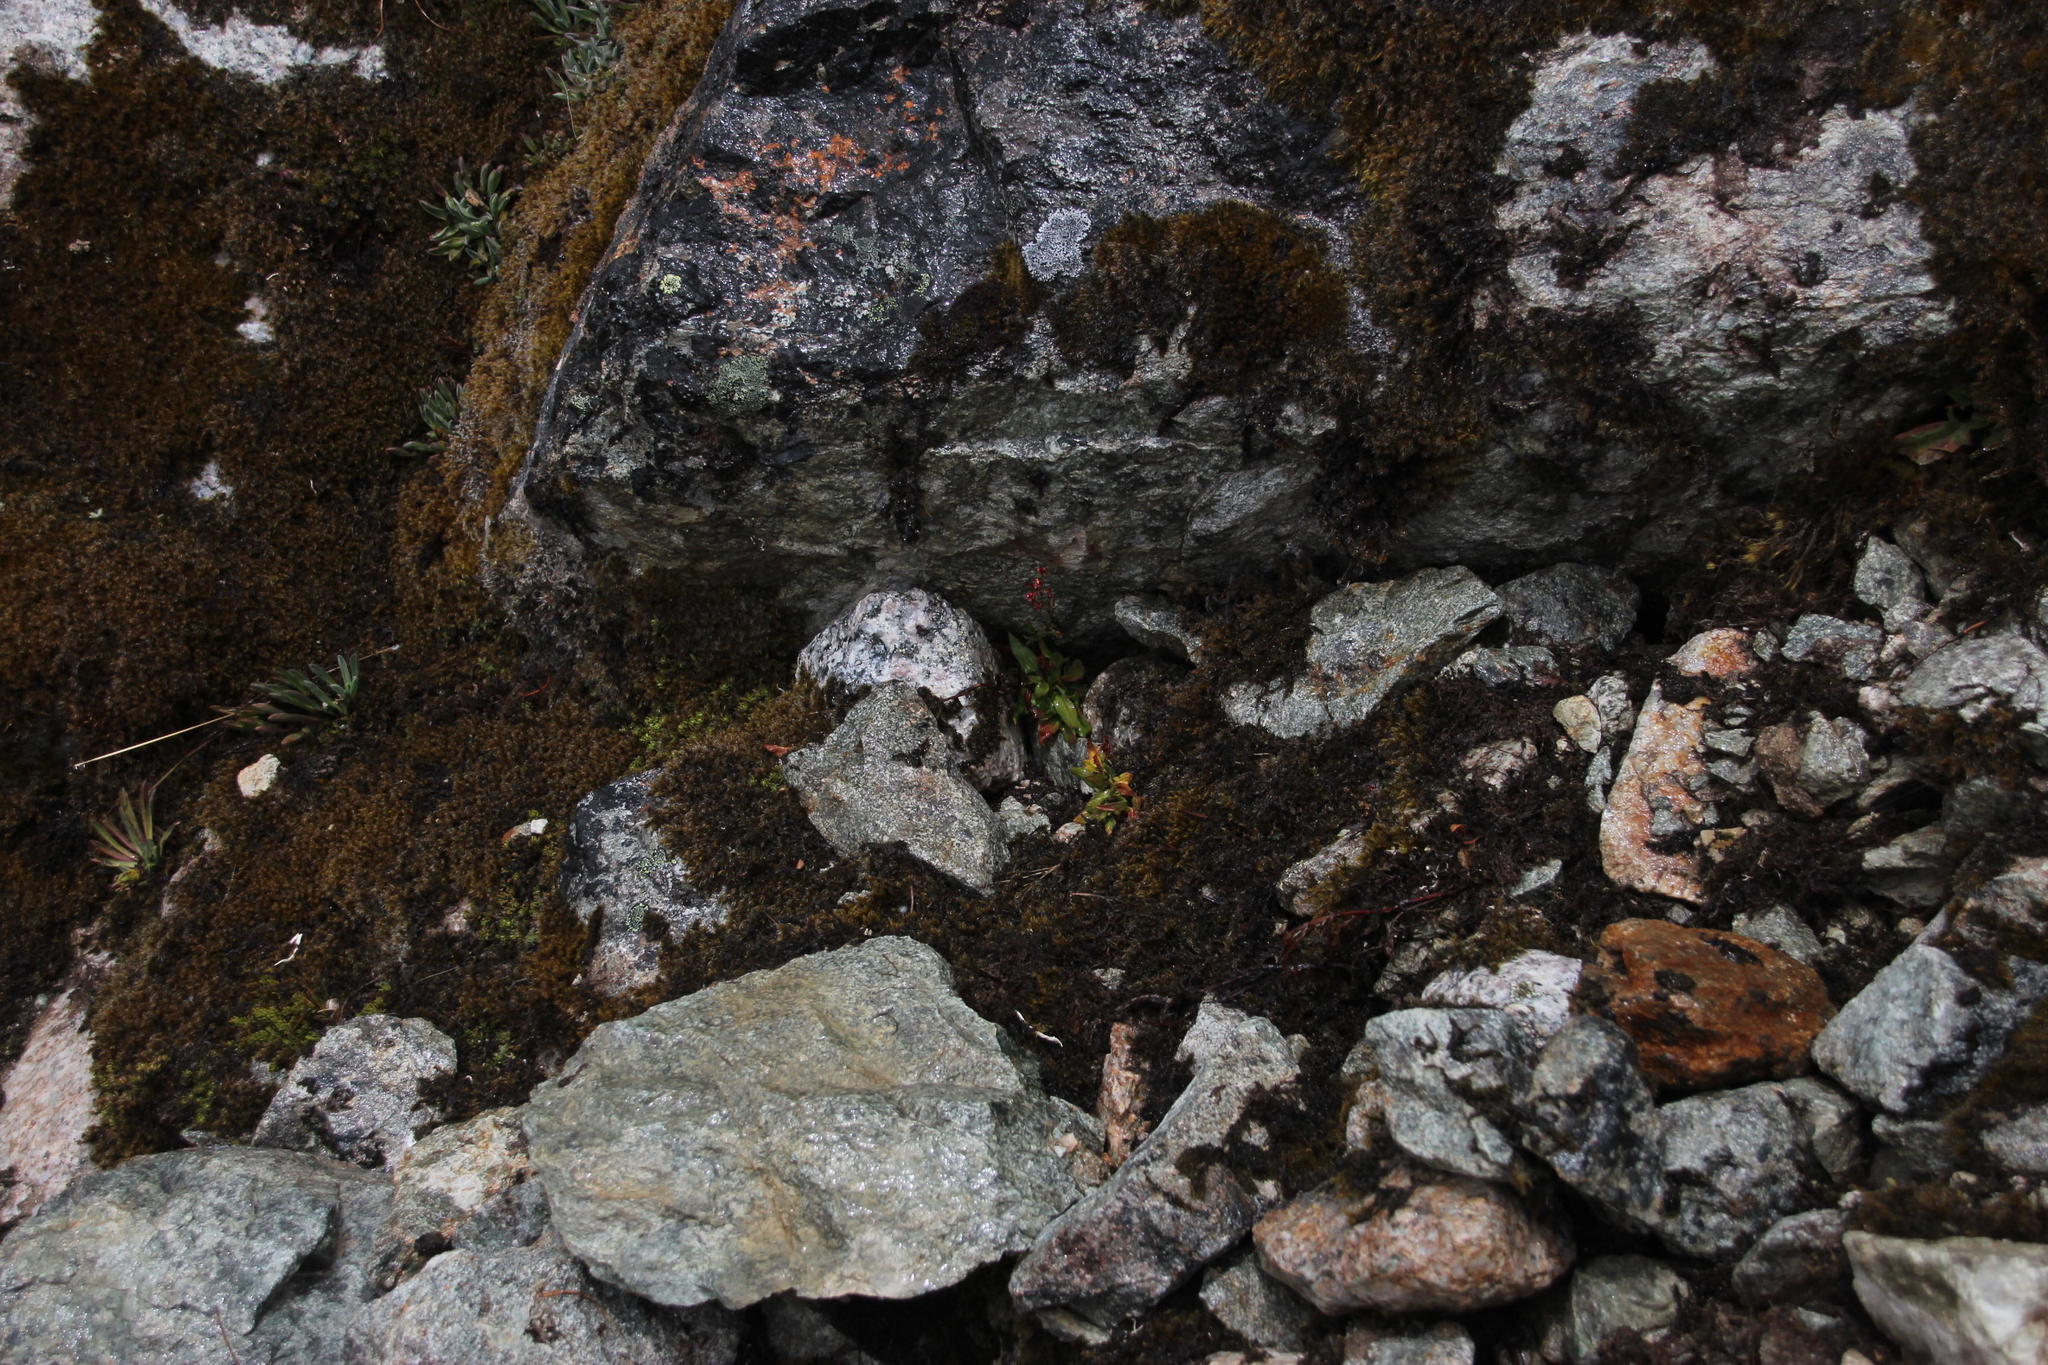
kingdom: Plantae
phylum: Tracheophyta
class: Magnoliopsida
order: Caryophyllales
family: Polygonaceae
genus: Rumex
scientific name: Rumex acetosella
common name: Common sheep sorrel
